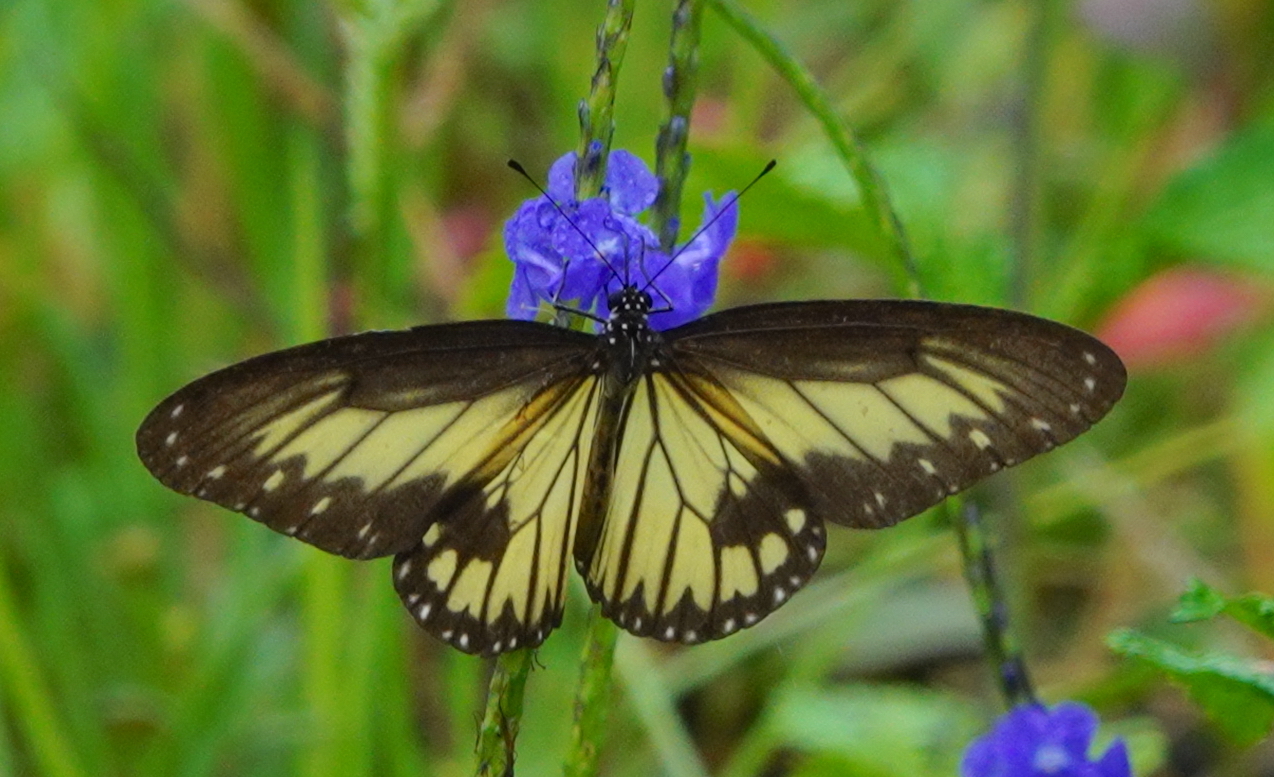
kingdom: Animalia
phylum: Arthropoda
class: Insecta
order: Lepidoptera
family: Nymphalidae
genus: Ideopsis
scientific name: Ideopsis vitrea
